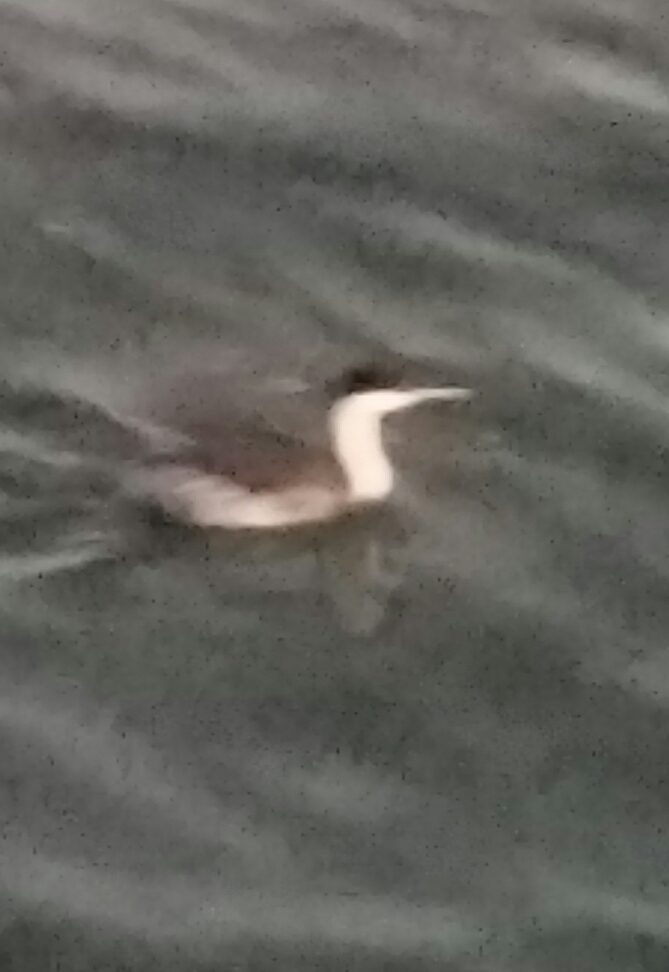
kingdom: Animalia
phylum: Chordata
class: Aves
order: Podicipediformes
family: Podicipedidae
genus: Aechmophorus
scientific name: Aechmophorus occidentalis
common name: Western grebe
